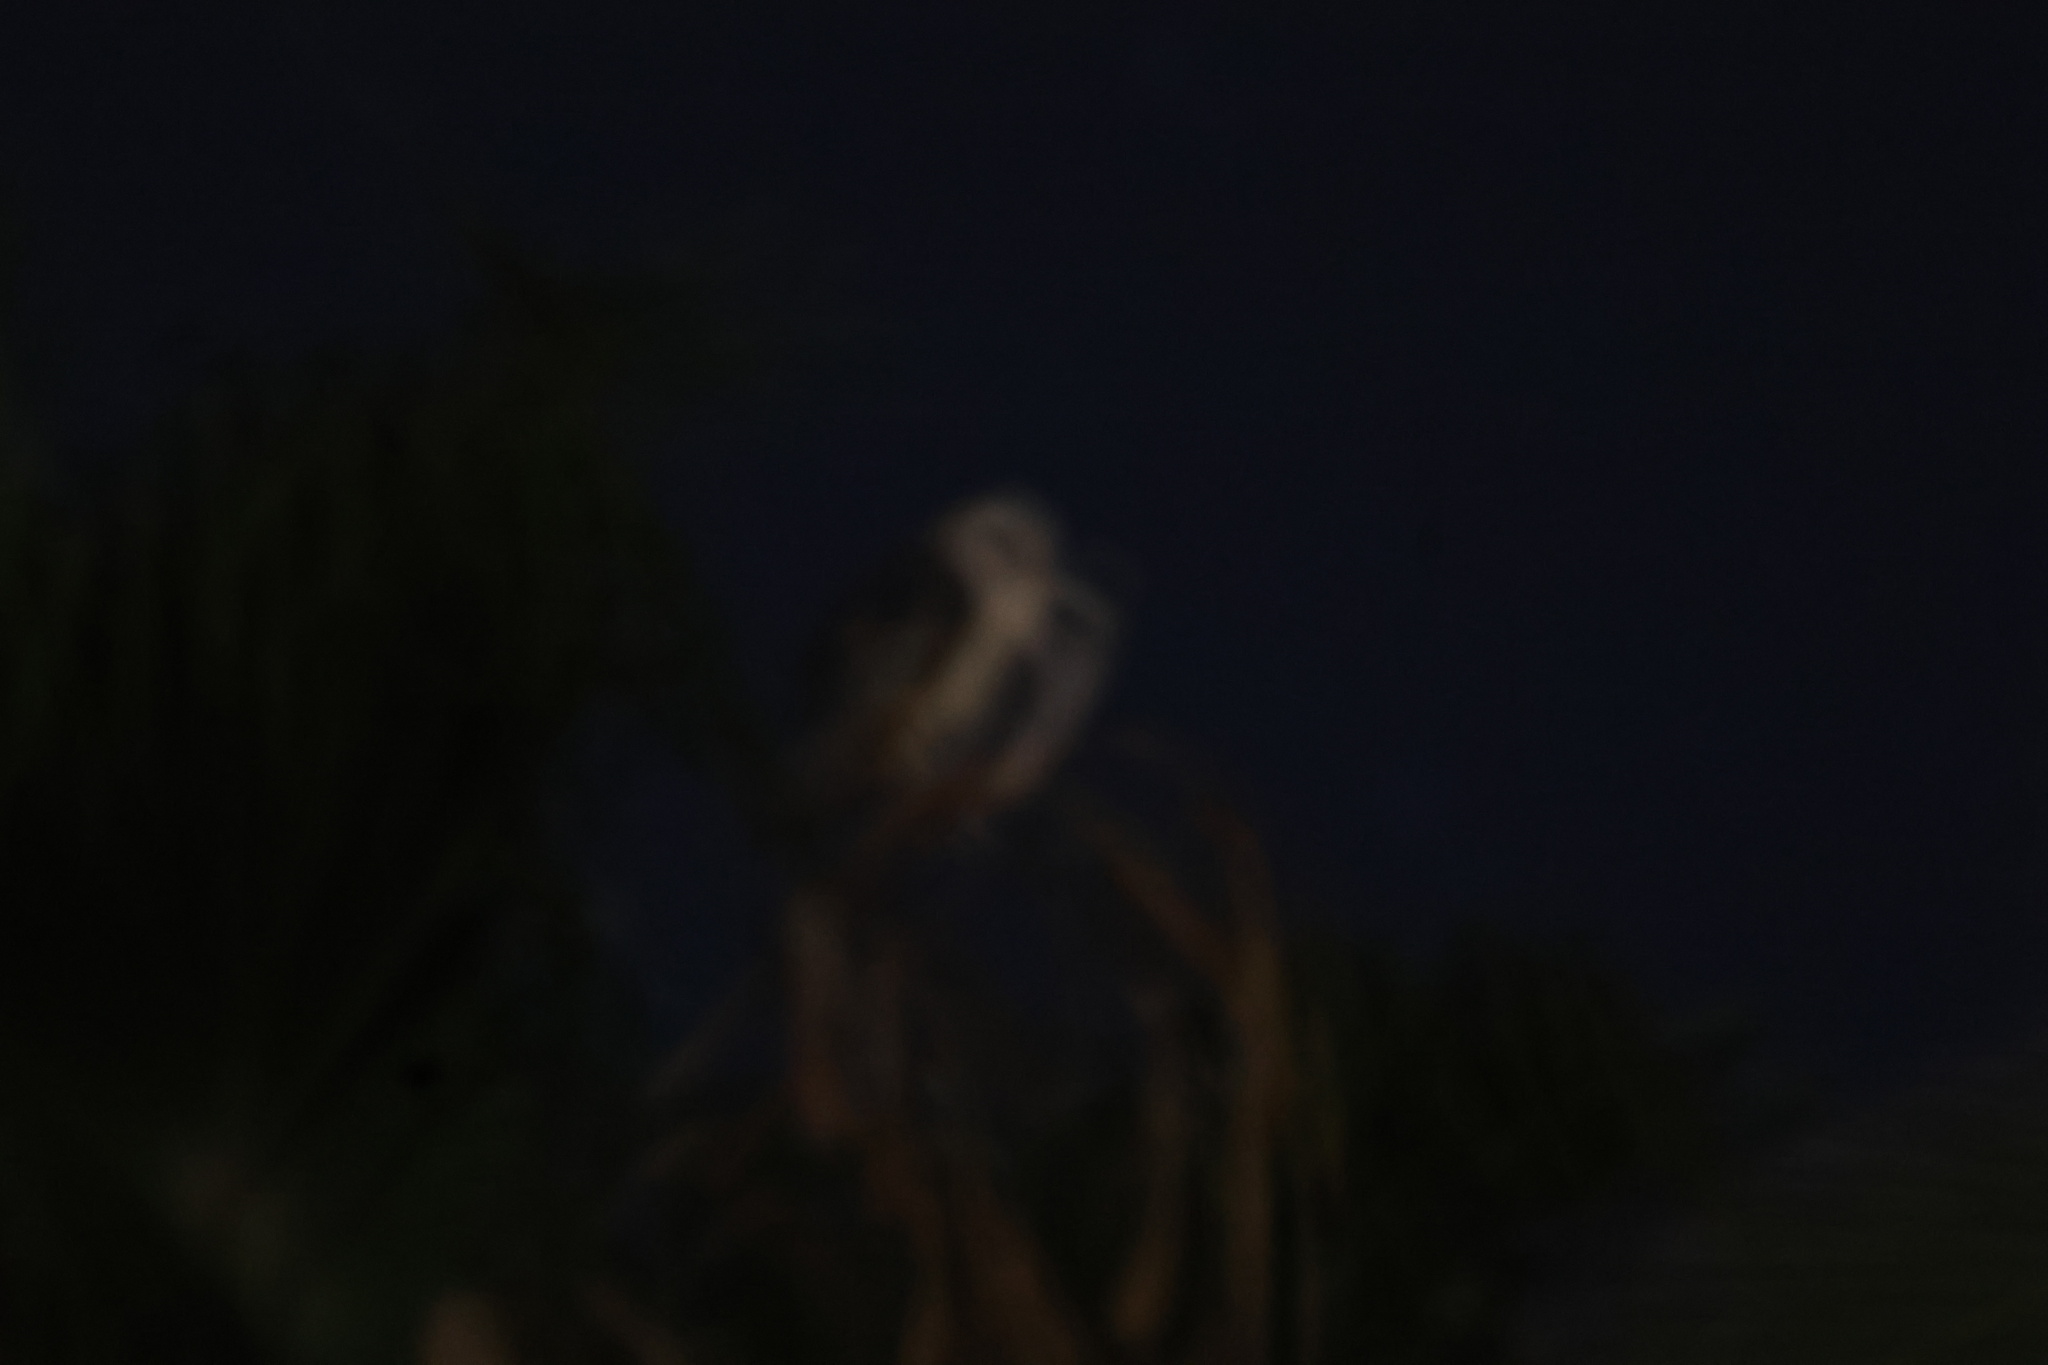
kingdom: Animalia
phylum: Chordata
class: Aves
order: Strigiformes
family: Tytonidae
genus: Tyto
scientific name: Tyto alba
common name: Barn owl
